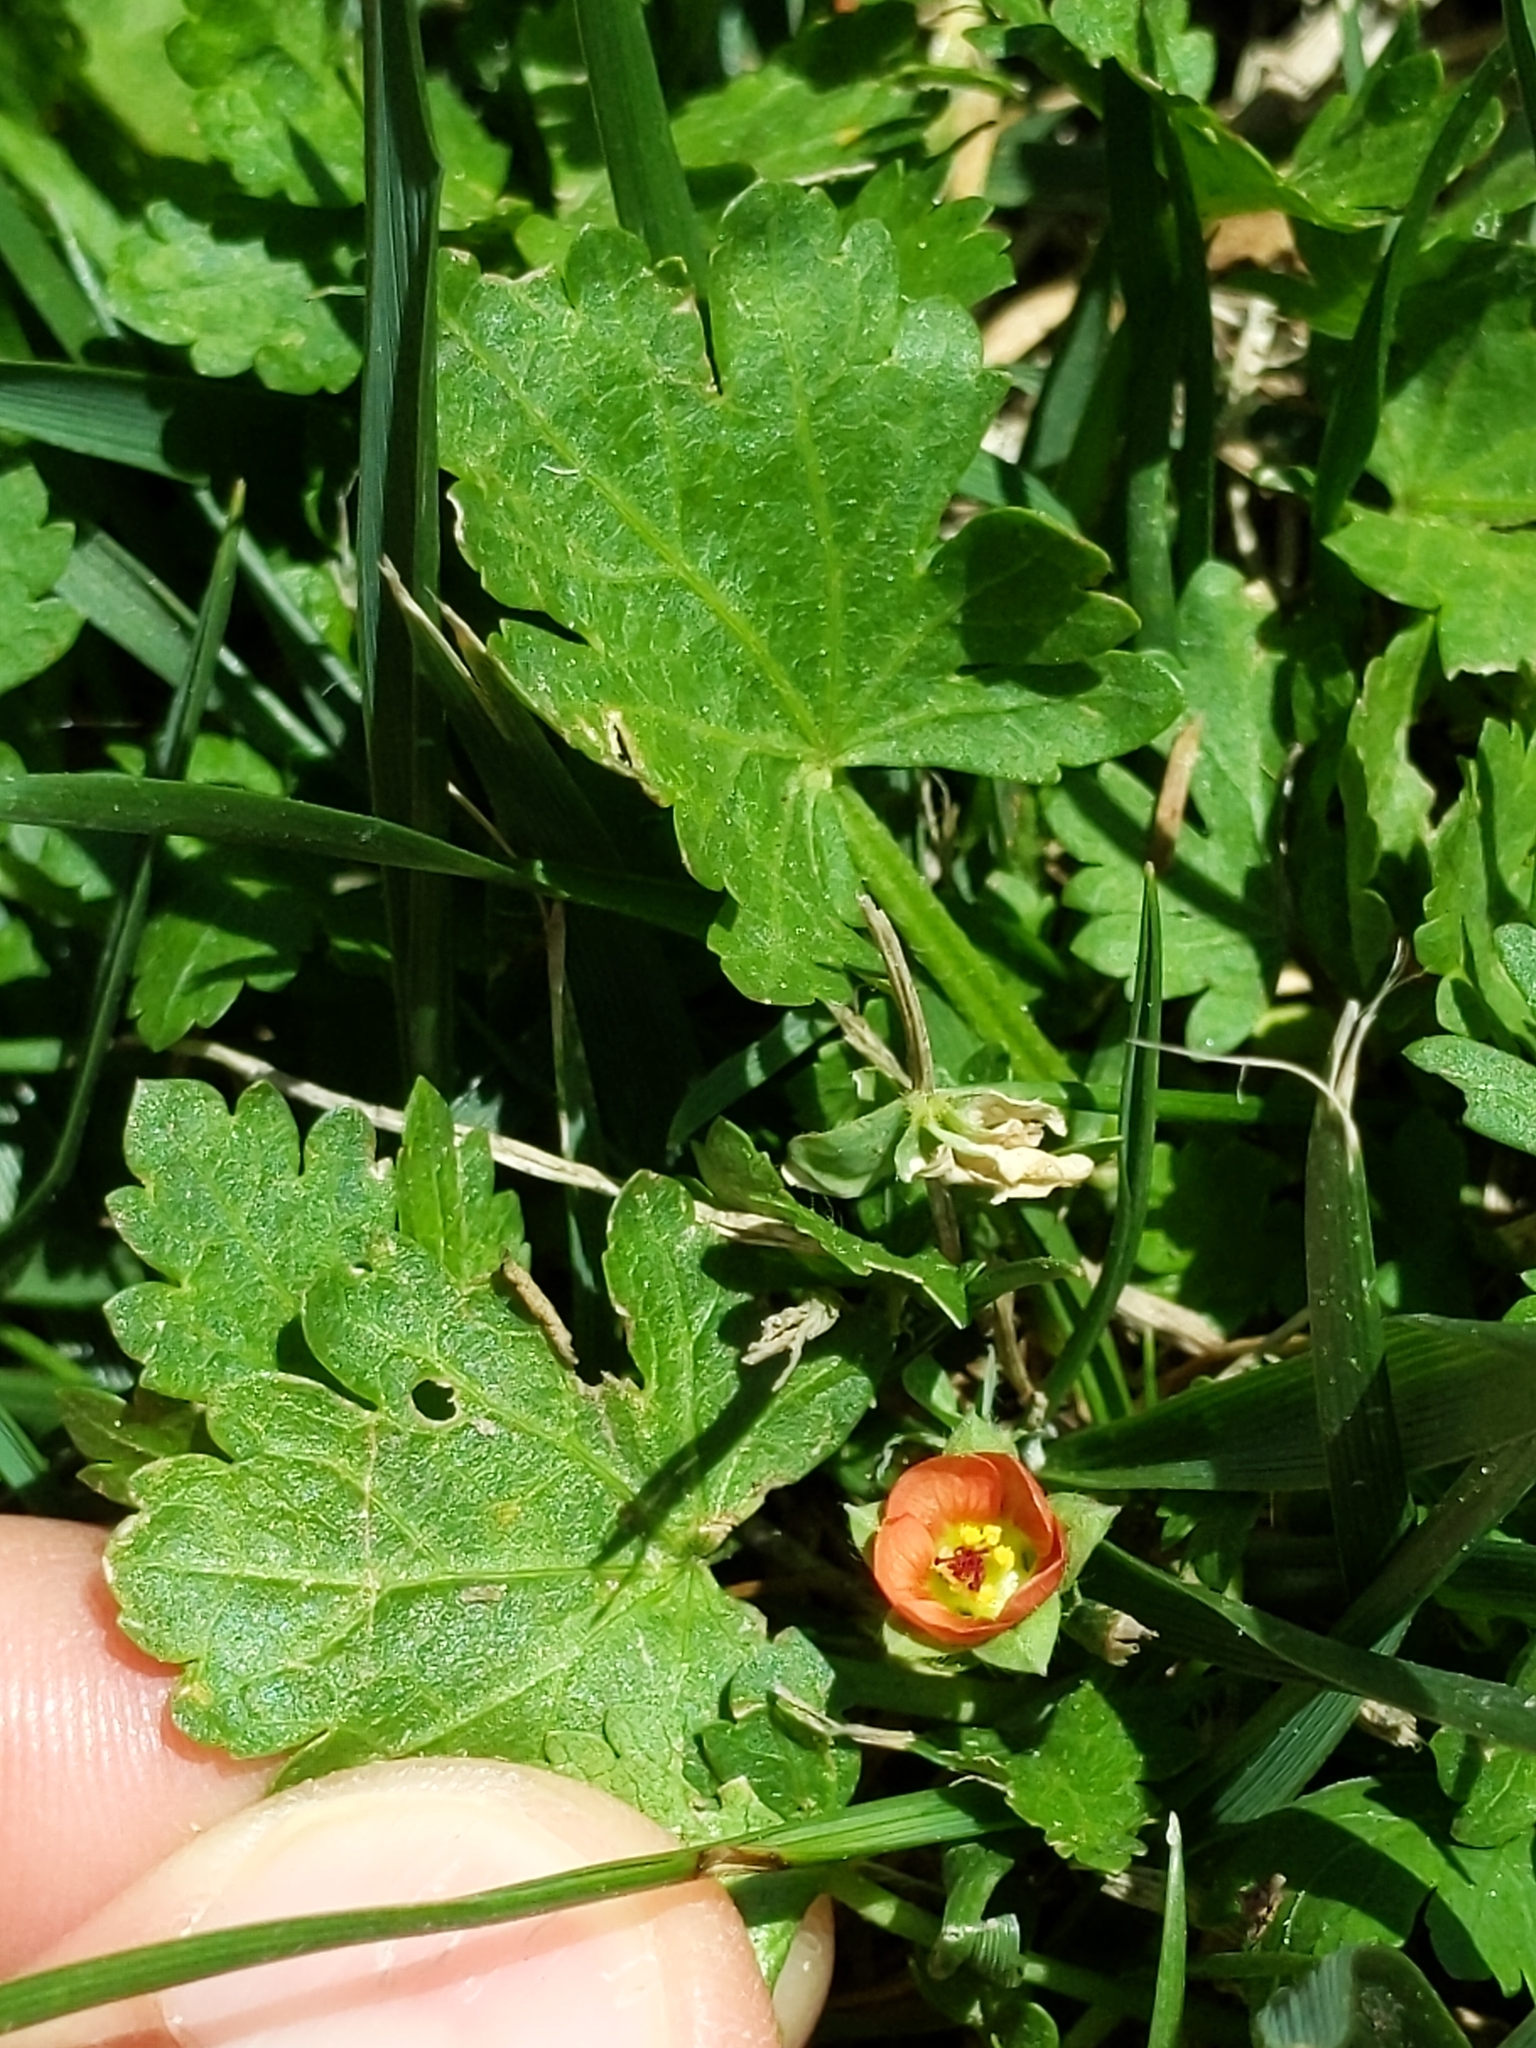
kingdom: Plantae
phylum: Tracheophyta
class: Magnoliopsida
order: Malvales
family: Malvaceae
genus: Modiola
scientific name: Modiola caroliniana
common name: Carolina bristlemallow
